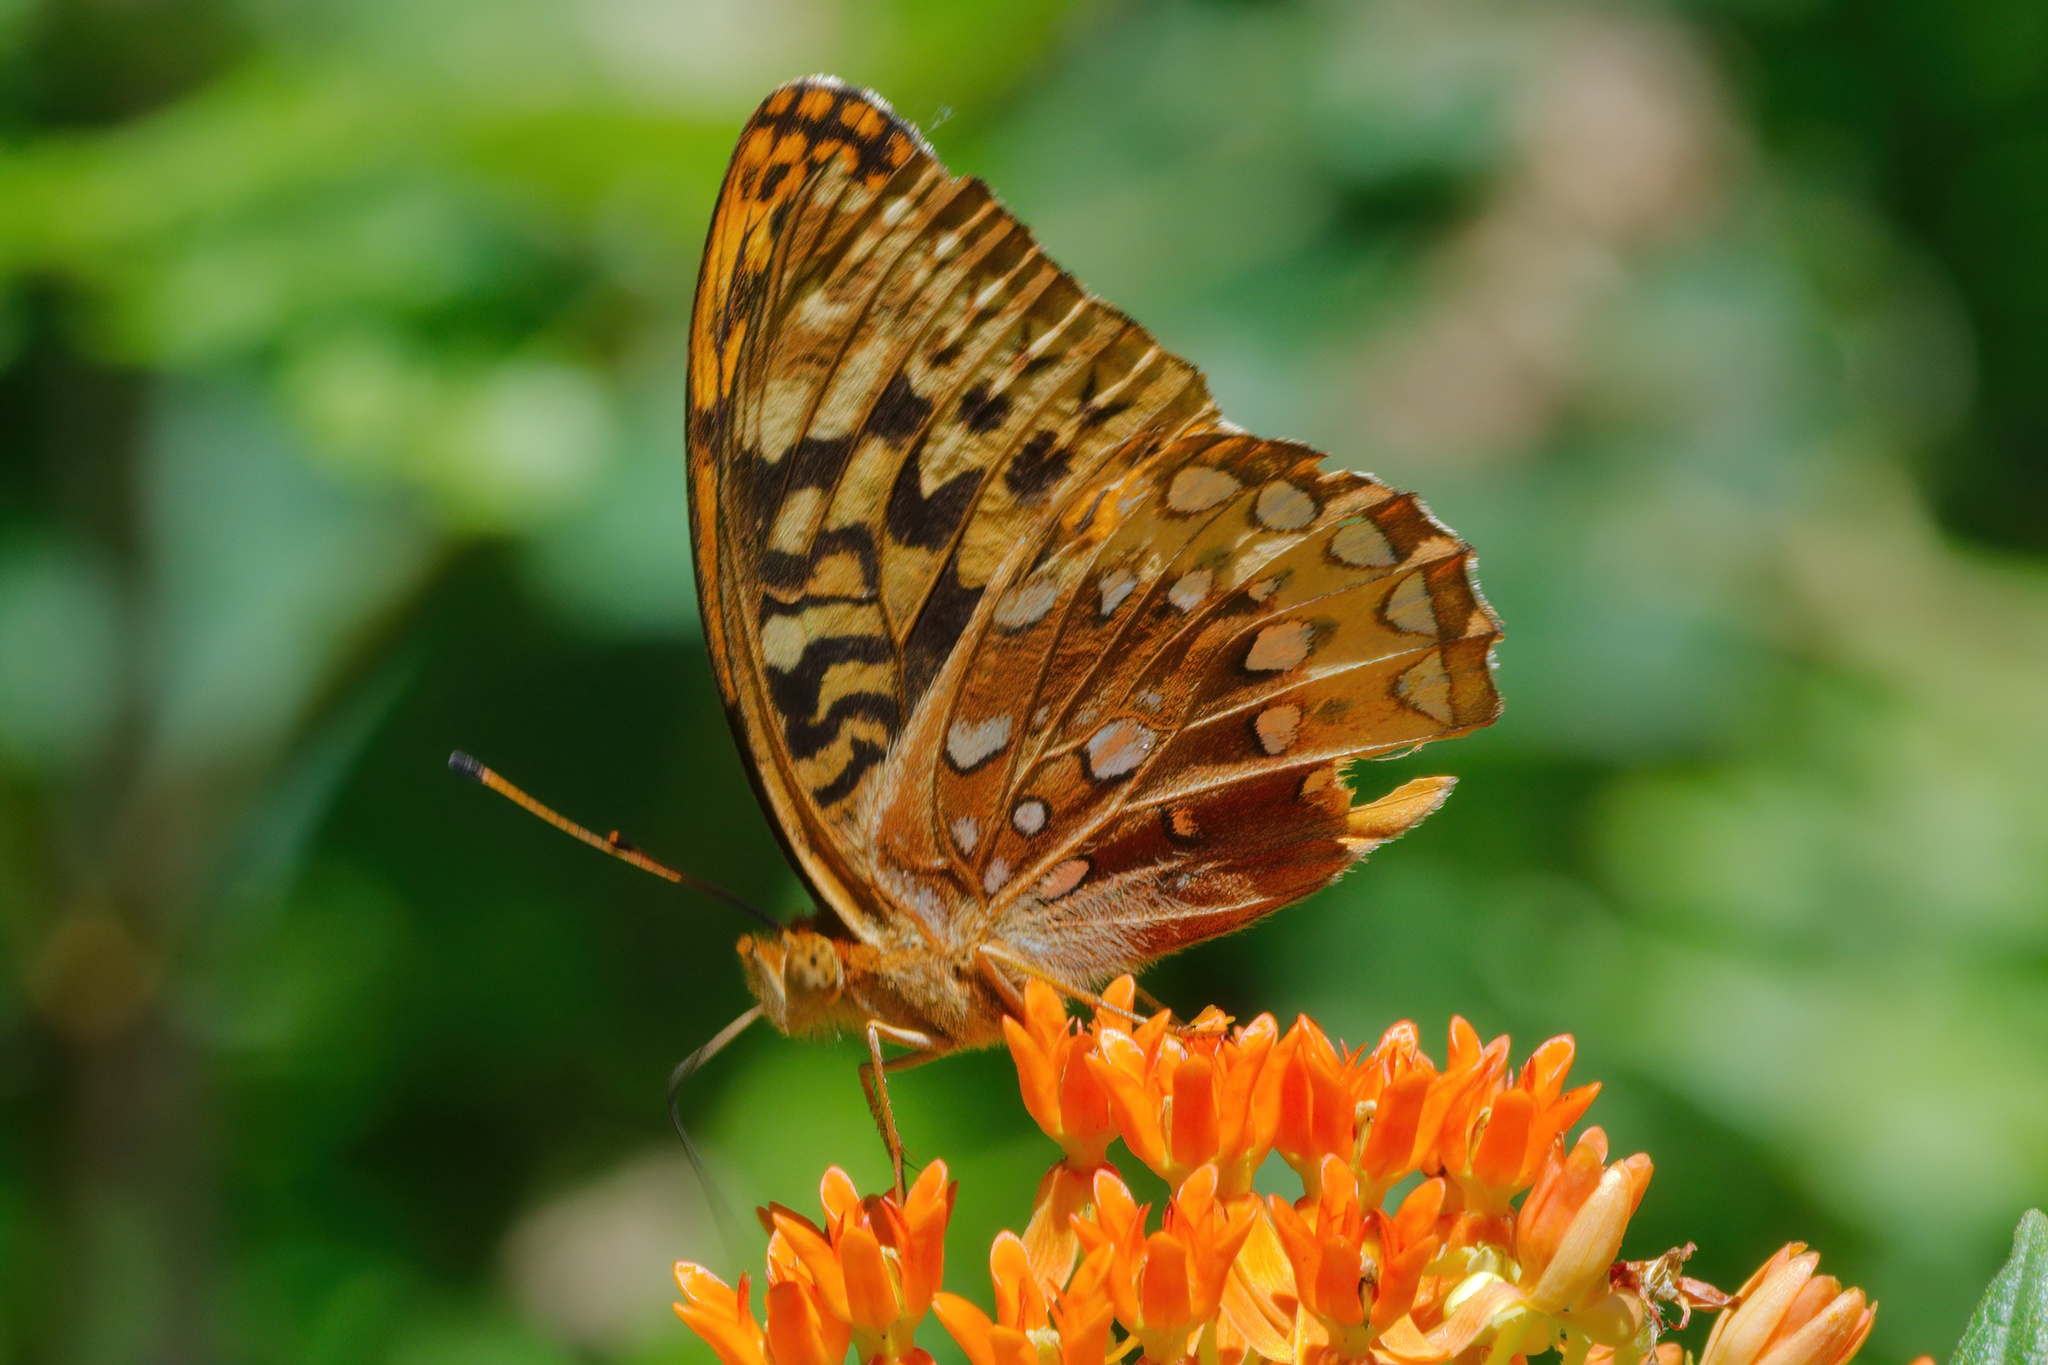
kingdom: Animalia
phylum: Arthropoda
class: Insecta
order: Lepidoptera
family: Nymphalidae
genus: Speyeria
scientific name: Speyeria cybele
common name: Great spangled fritillary
